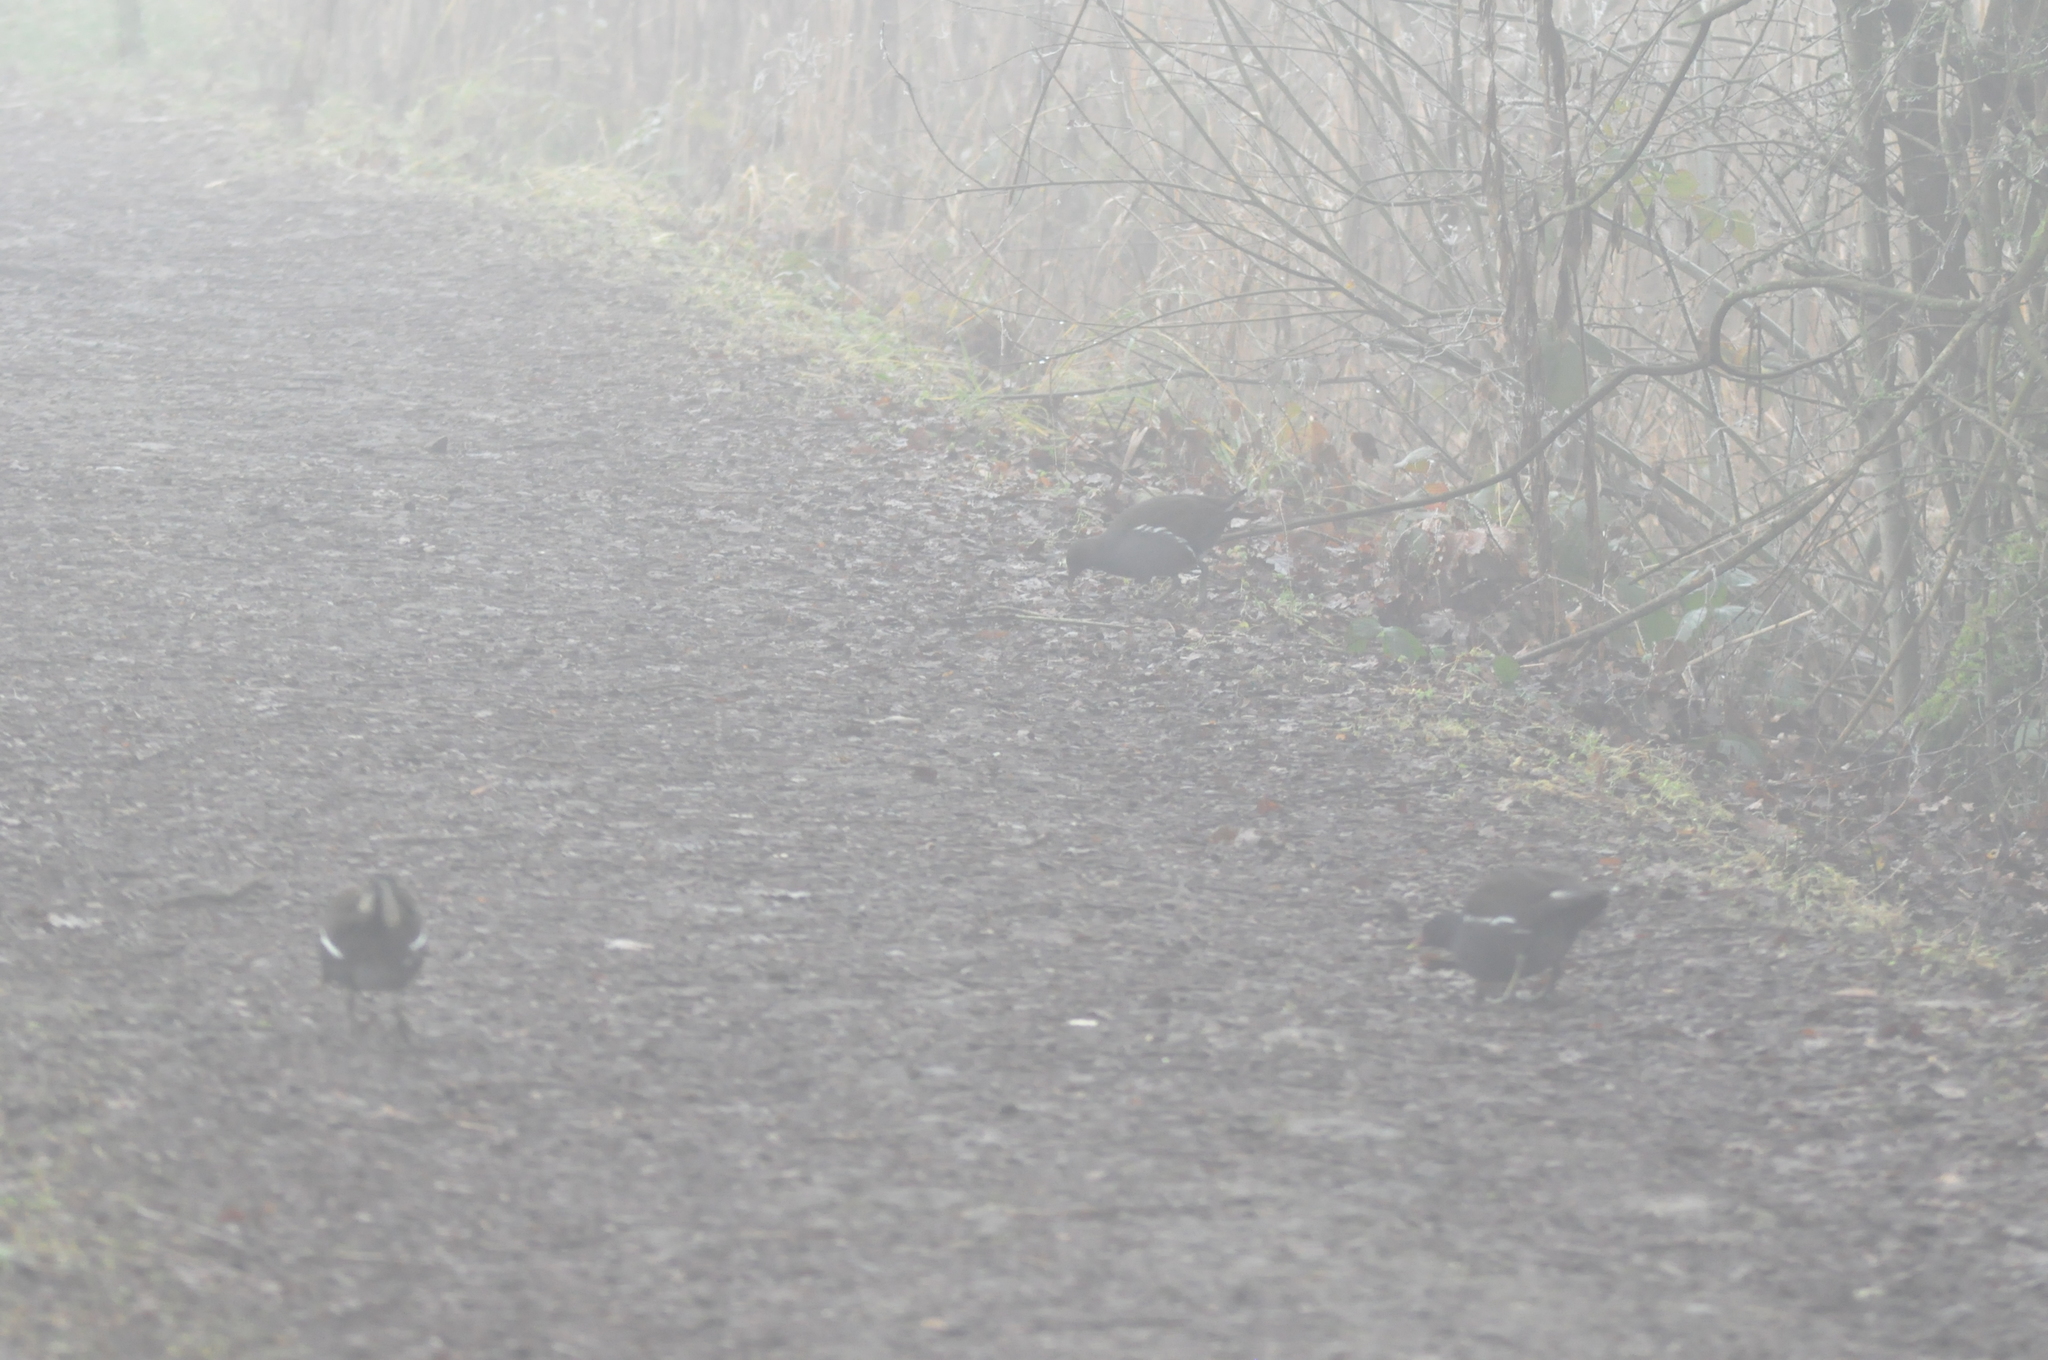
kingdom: Animalia
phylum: Chordata
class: Aves
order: Gruiformes
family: Rallidae
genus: Gallinula
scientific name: Gallinula chloropus
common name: Common moorhen
